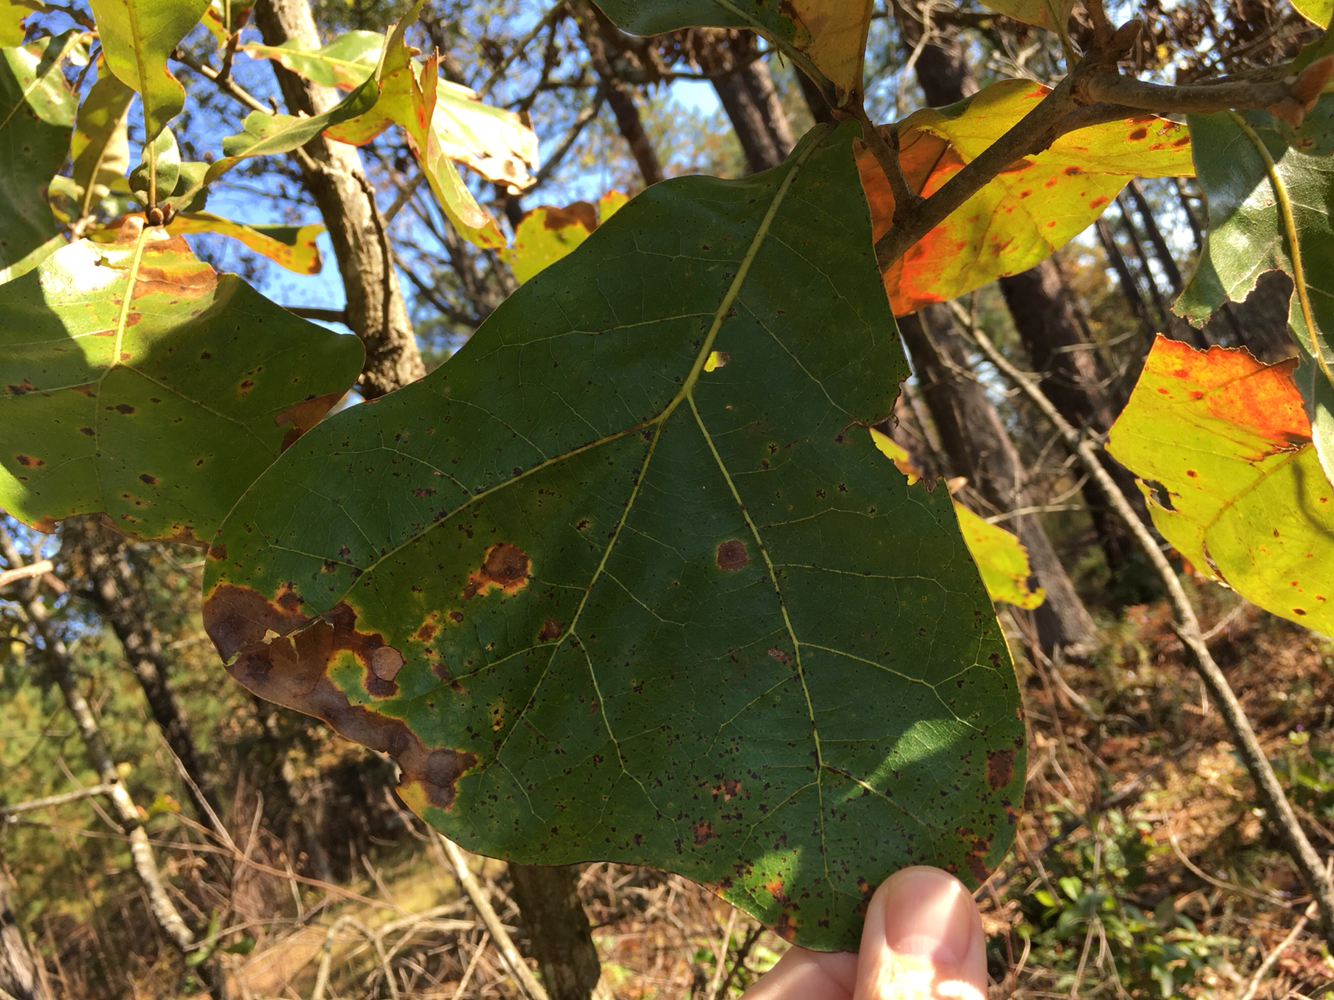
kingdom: Plantae
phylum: Tracheophyta
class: Magnoliopsida
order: Fagales
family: Fagaceae
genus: Quercus
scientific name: Quercus marilandica
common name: Blackjack oak
